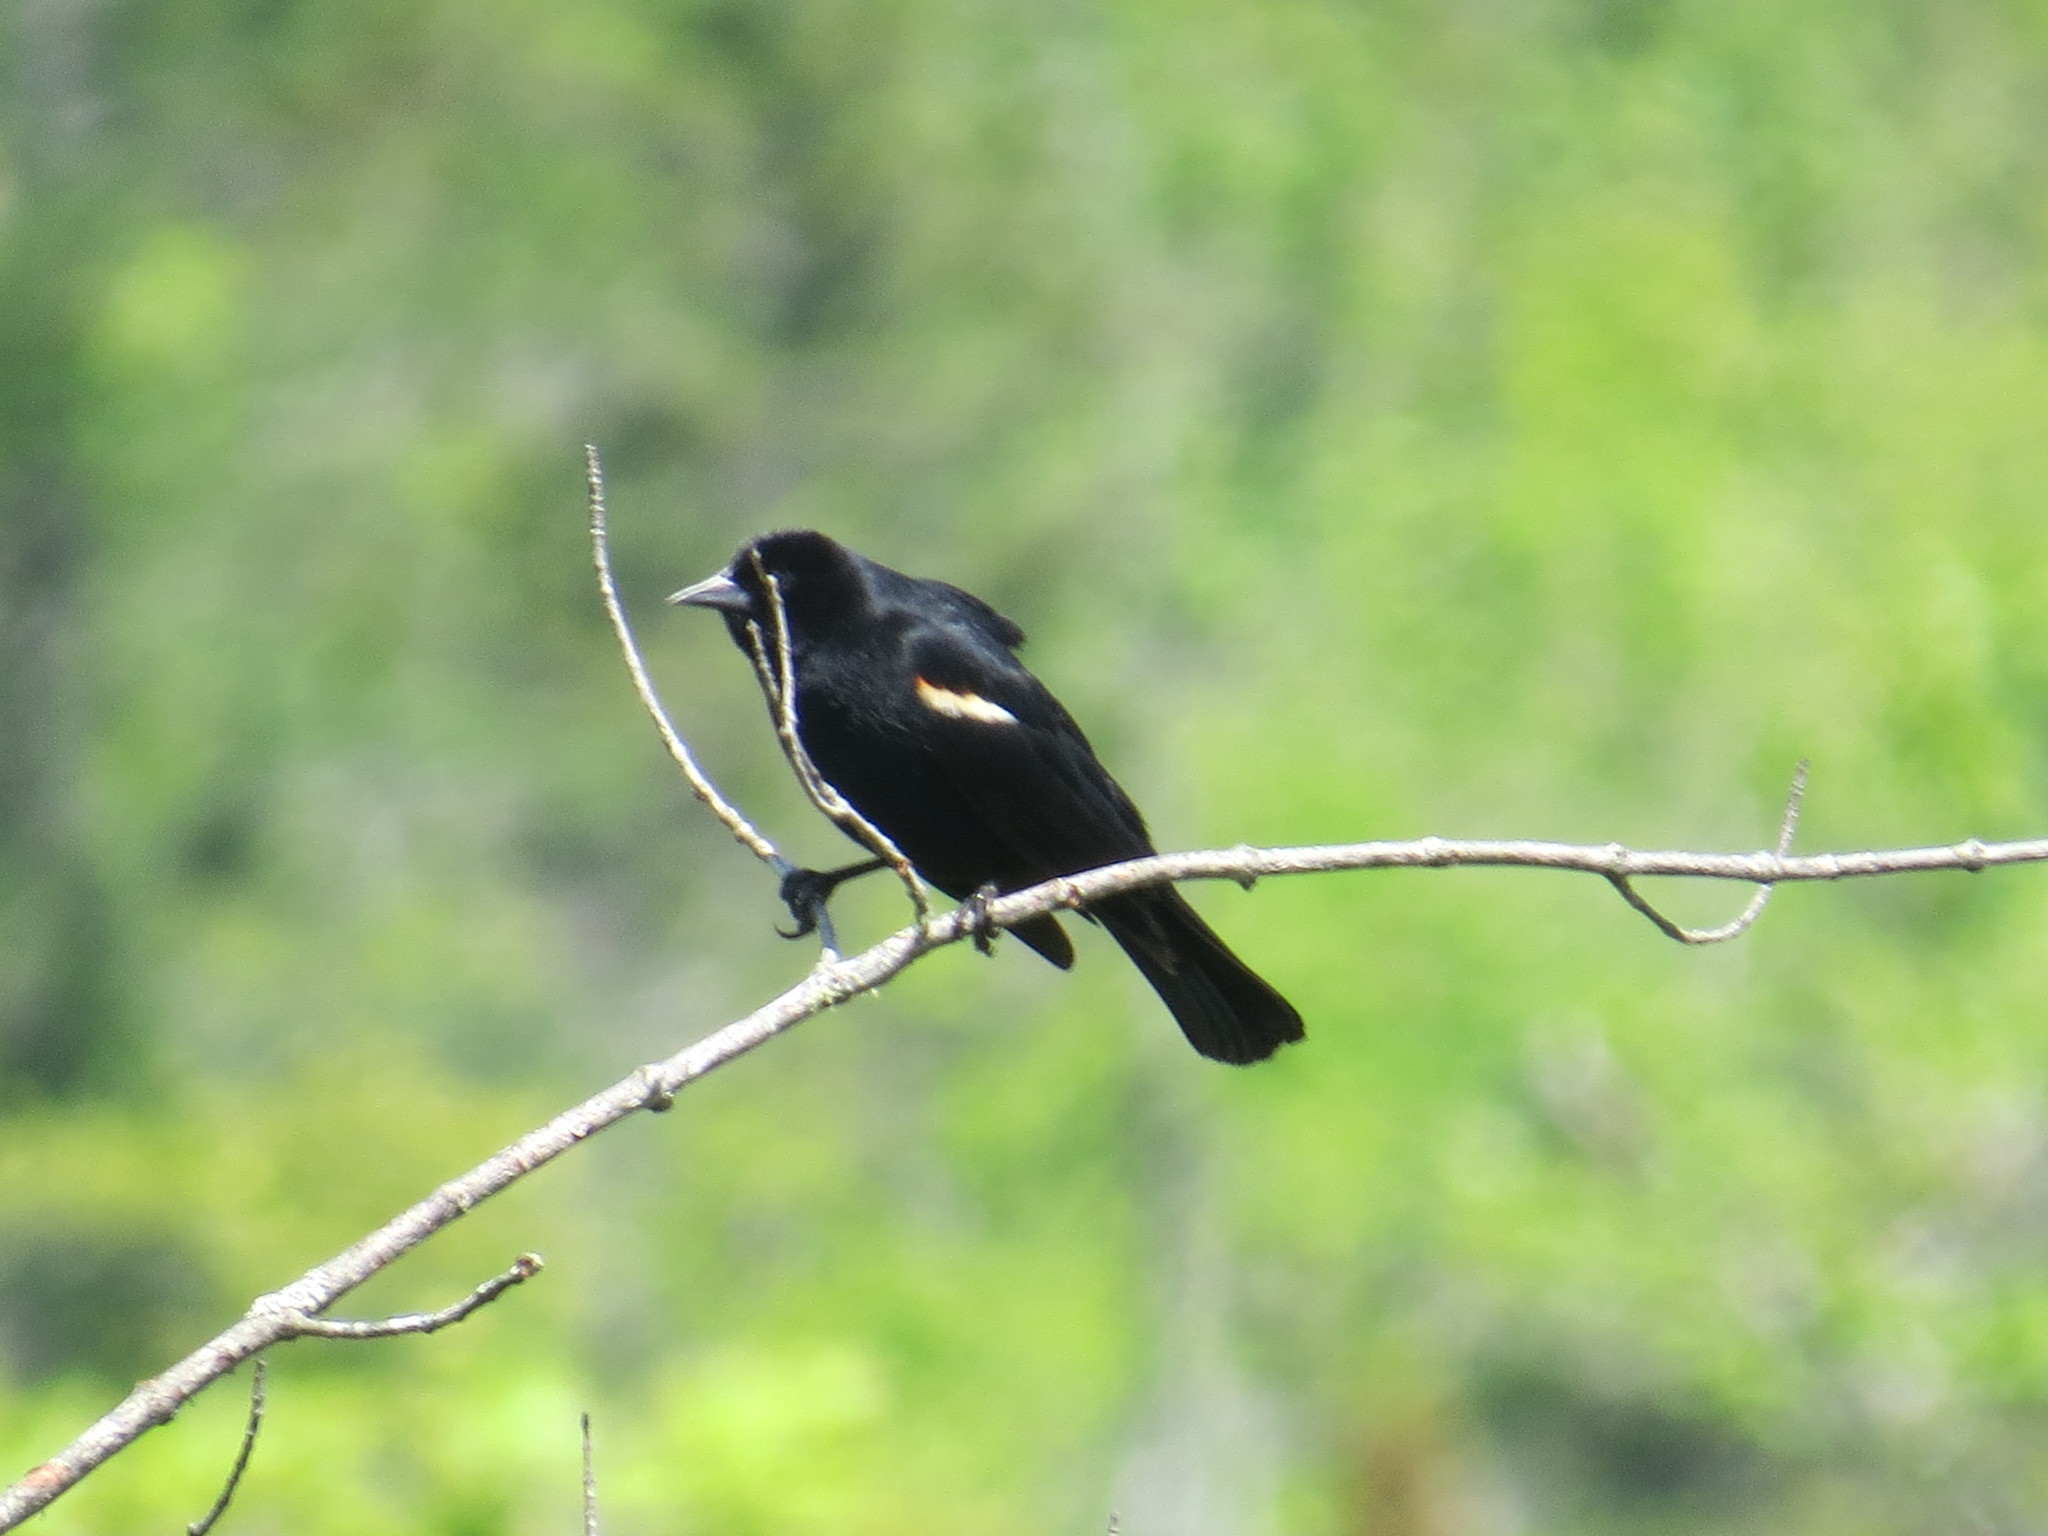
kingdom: Animalia
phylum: Chordata
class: Aves
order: Passeriformes
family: Icteridae
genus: Agelaius
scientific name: Agelaius phoeniceus
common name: Red-winged blackbird
